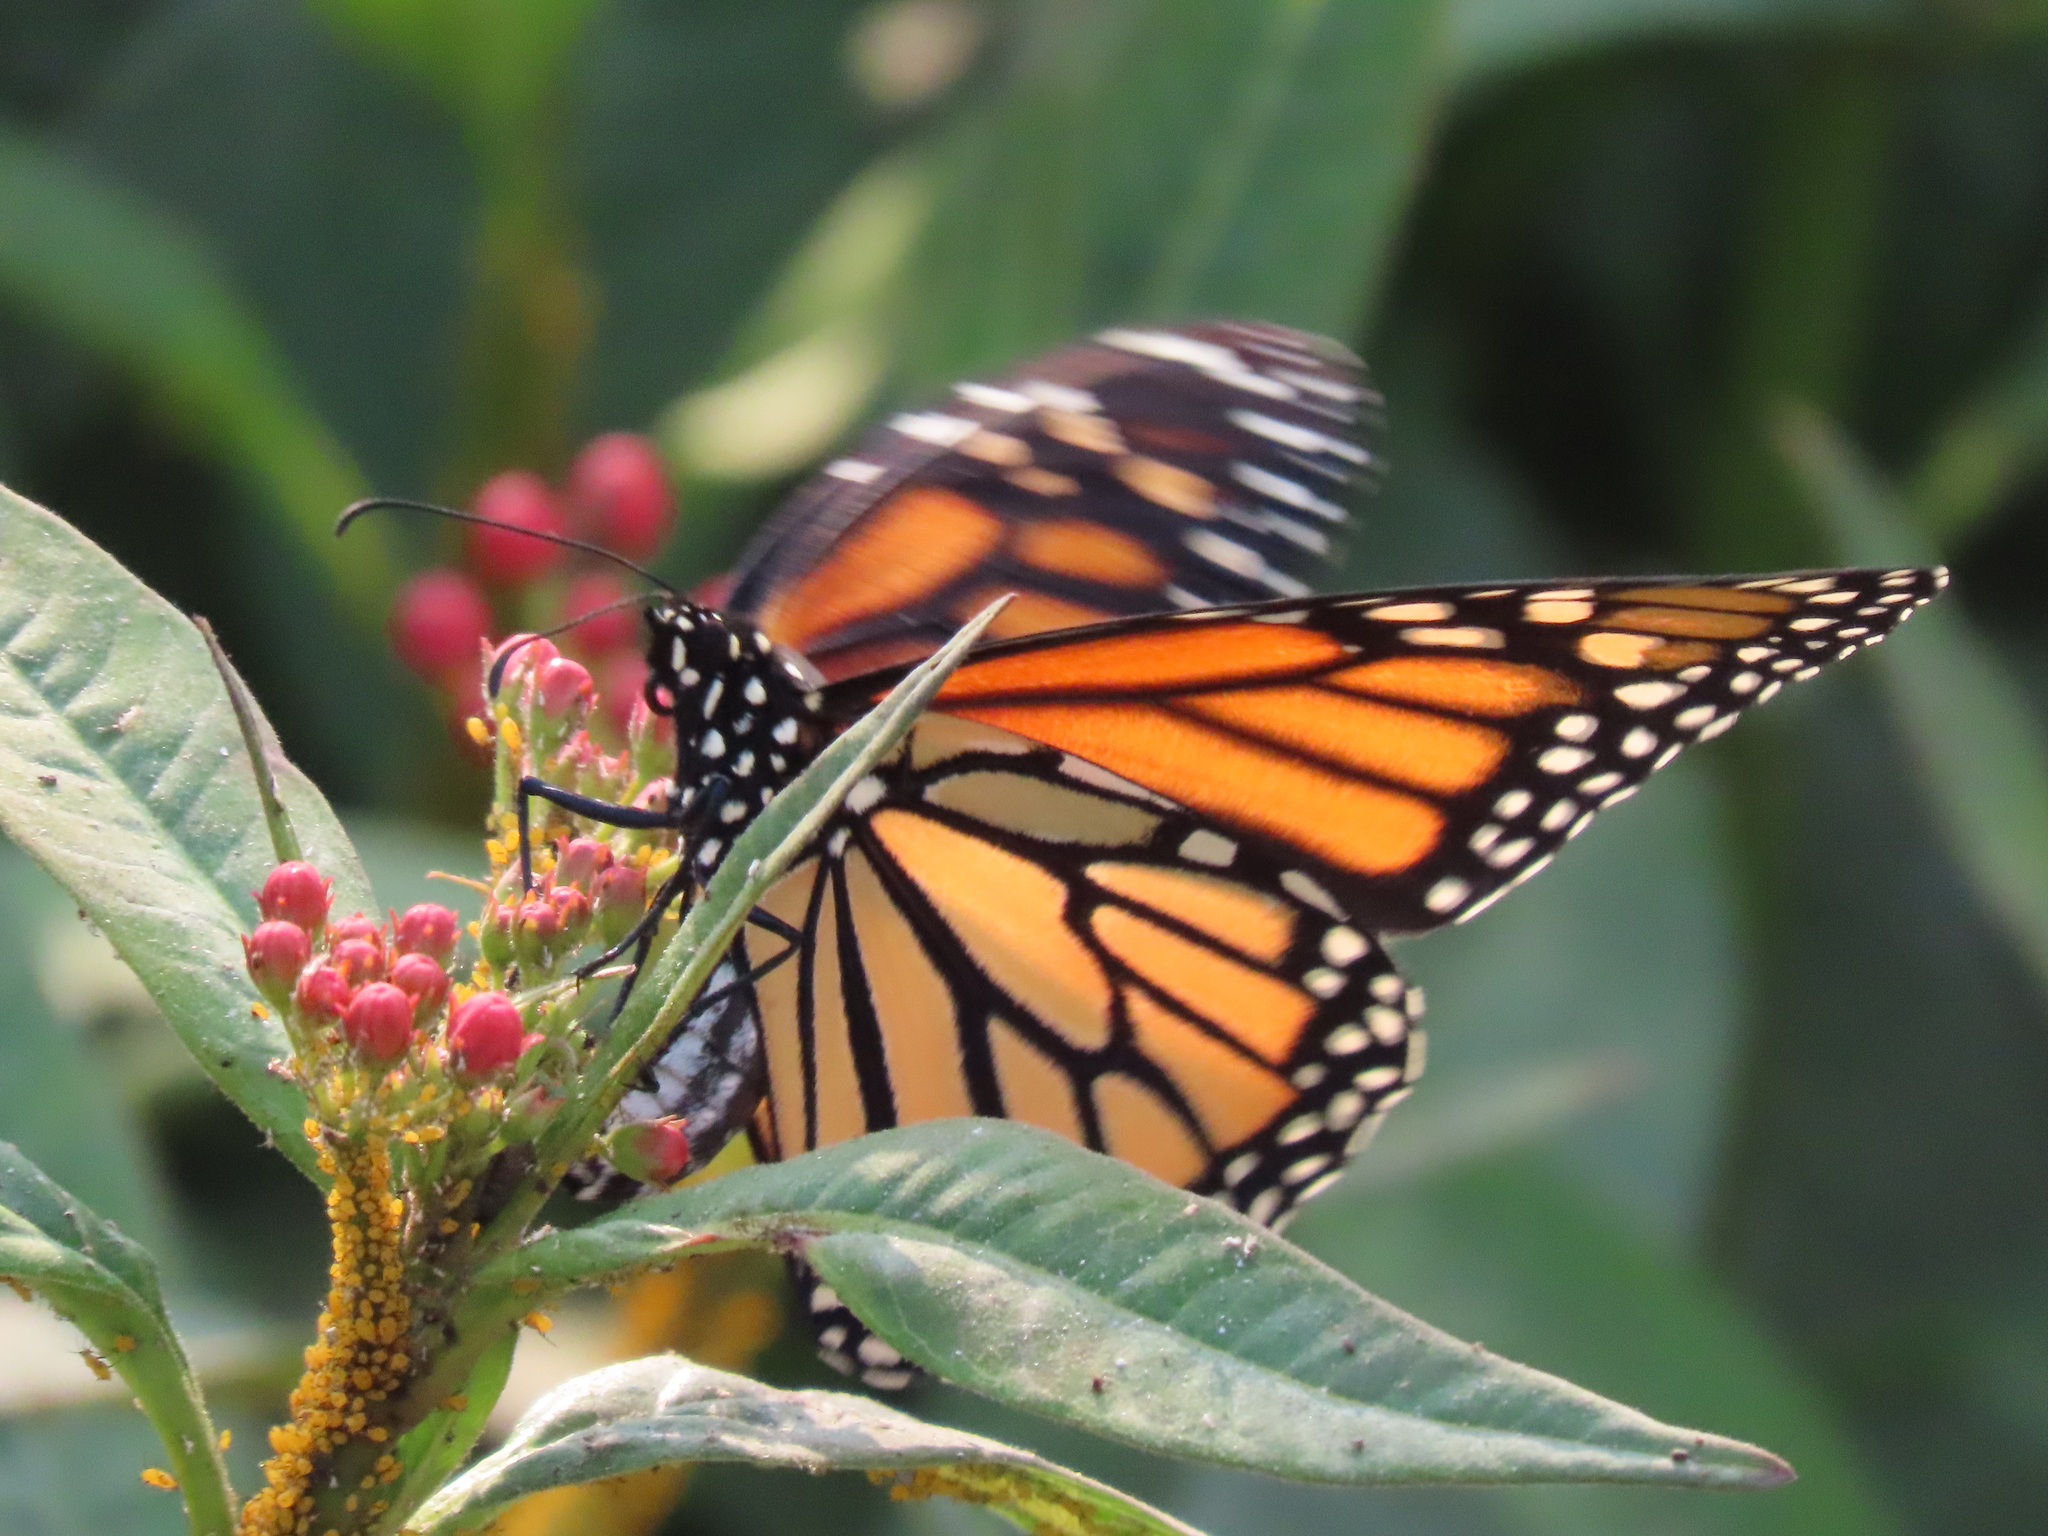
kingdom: Animalia
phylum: Arthropoda
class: Insecta
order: Lepidoptera
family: Nymphalidae
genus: Danaus
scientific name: Danaus plexippus
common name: Monarch
